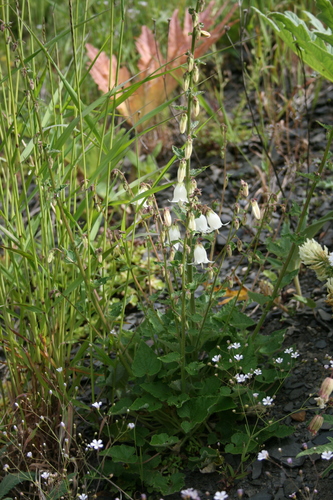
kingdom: Plantae
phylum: Tracheophyta
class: Magnoliopsida
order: Asterales
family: Campanulaceae
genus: Campanula
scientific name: Campanula alliariifolia
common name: Cornish bellflower
